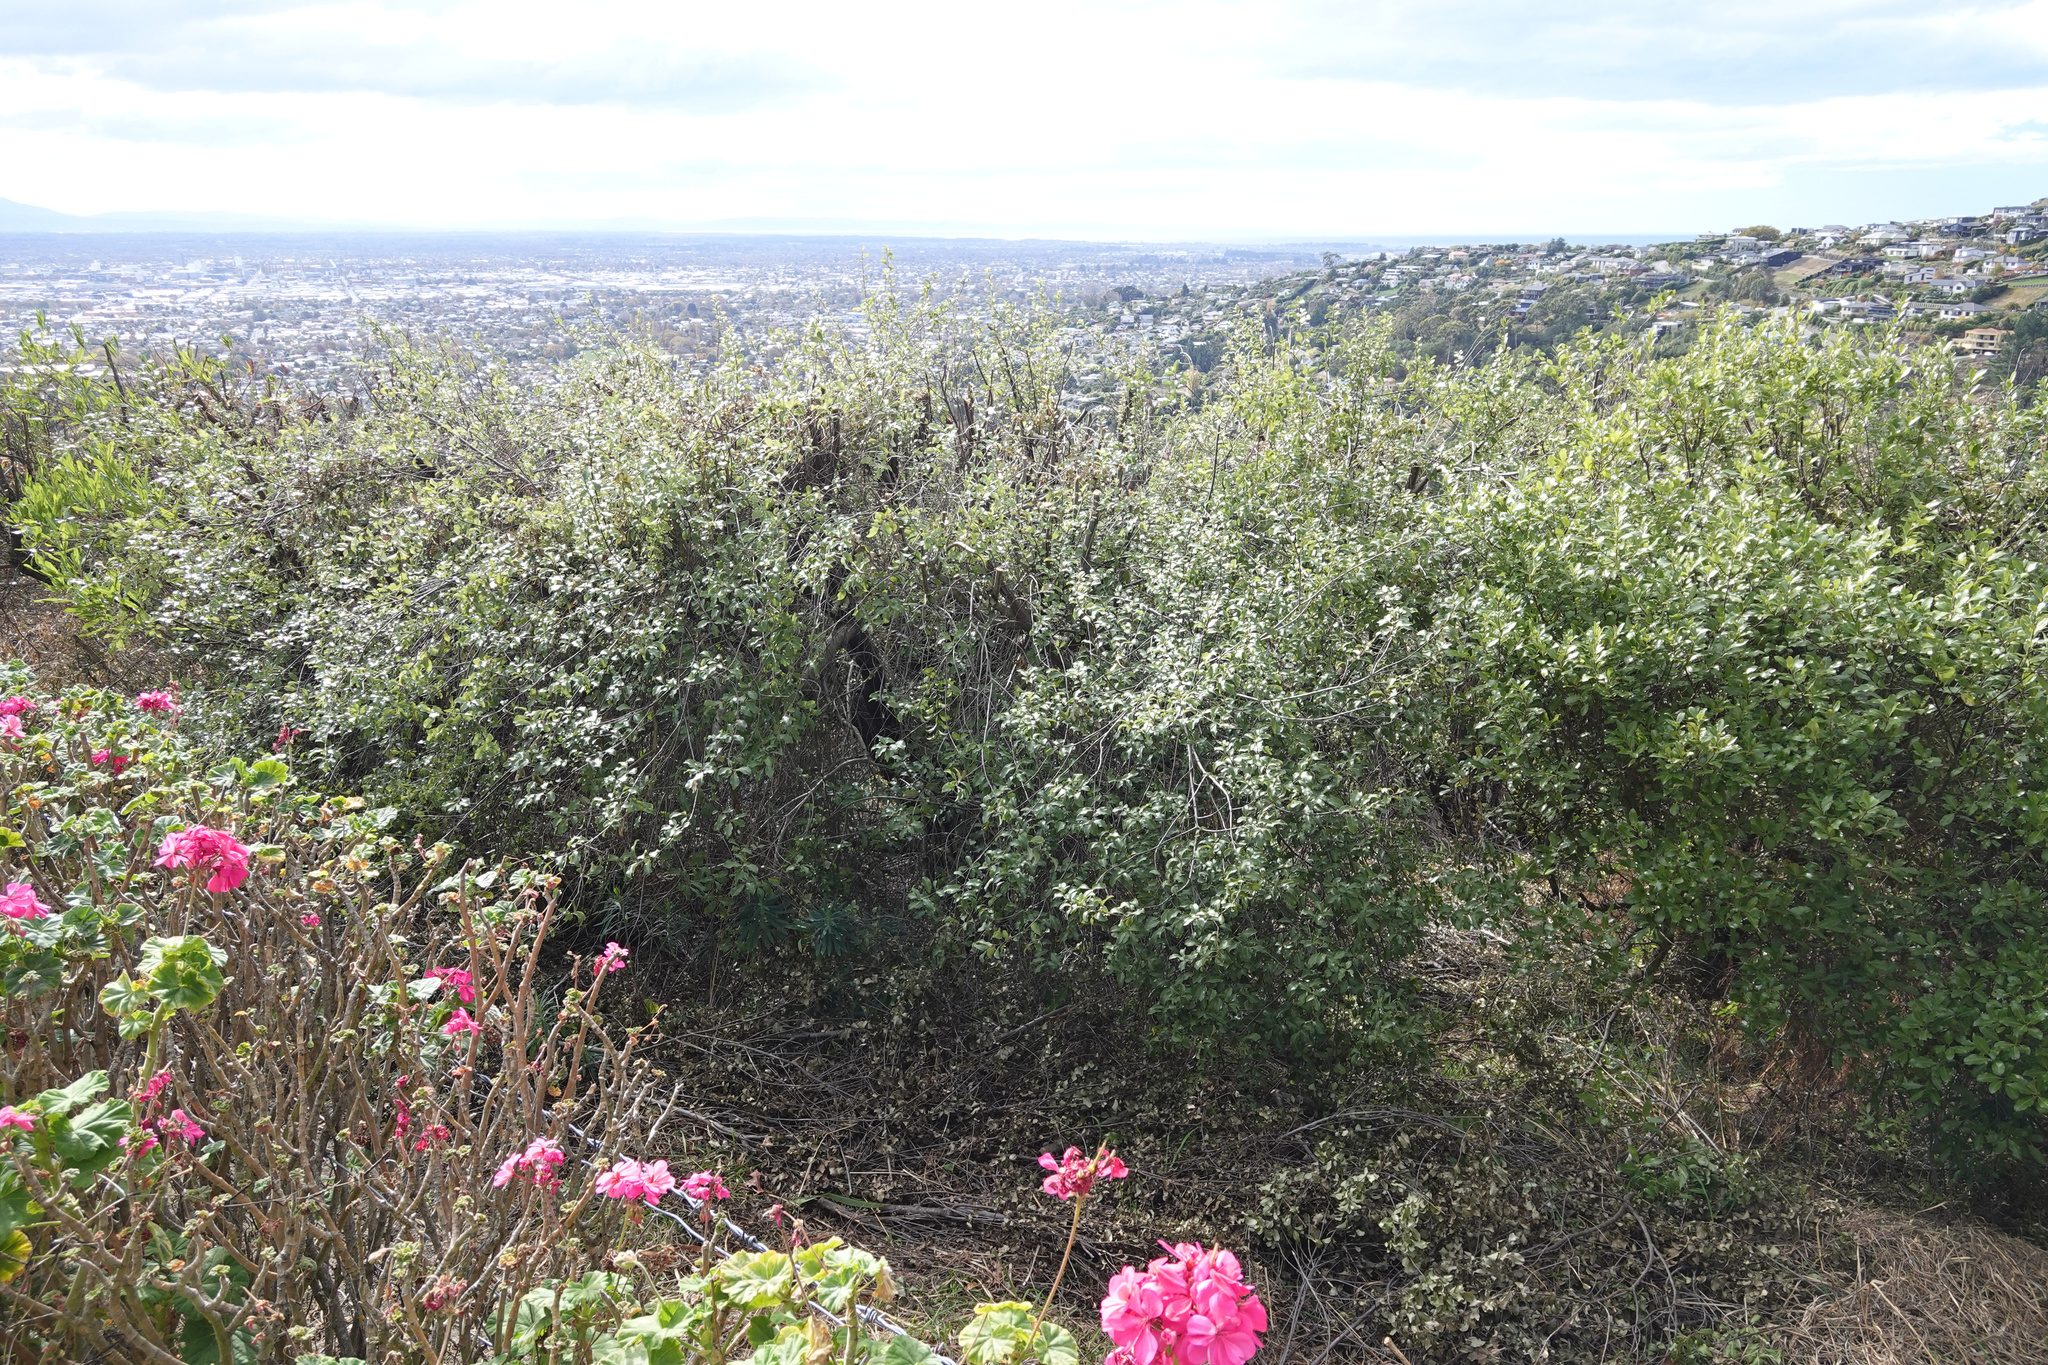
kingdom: Plantae
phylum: Tracheophyta
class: Magnoliopsida
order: Apiales
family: Pittosporaceae
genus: Pittosporum
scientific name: Pittosporum tenuifolium
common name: Kohuhu
